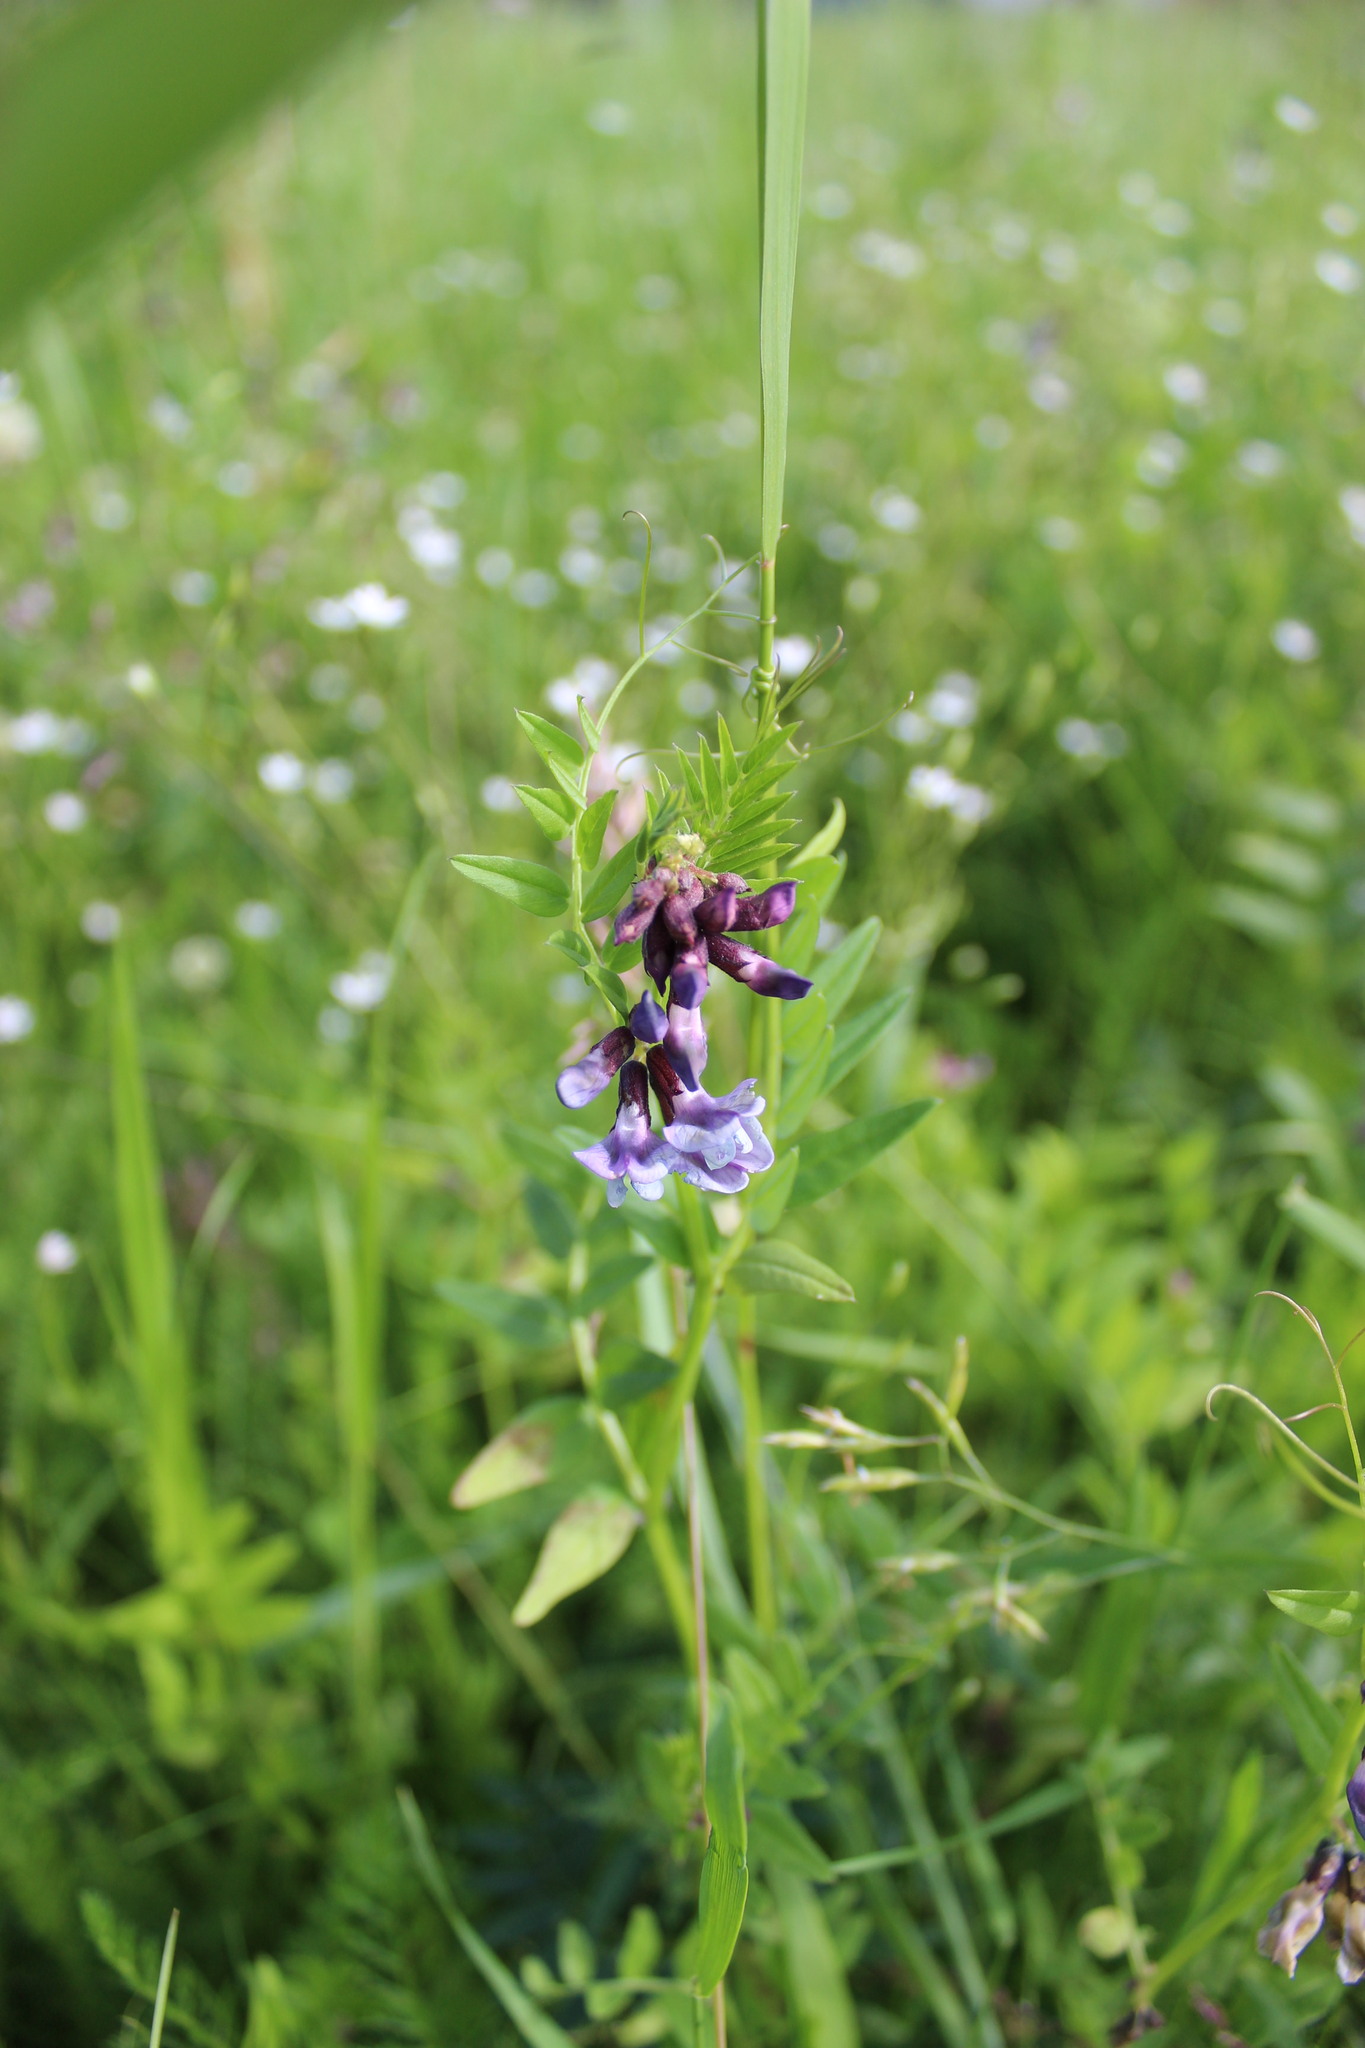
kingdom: Plantae
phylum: Tracheophyta
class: Magnoliopsida
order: Fabales
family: Fabaceae
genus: Vicia
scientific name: Vicia sepium
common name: Bush vetch
